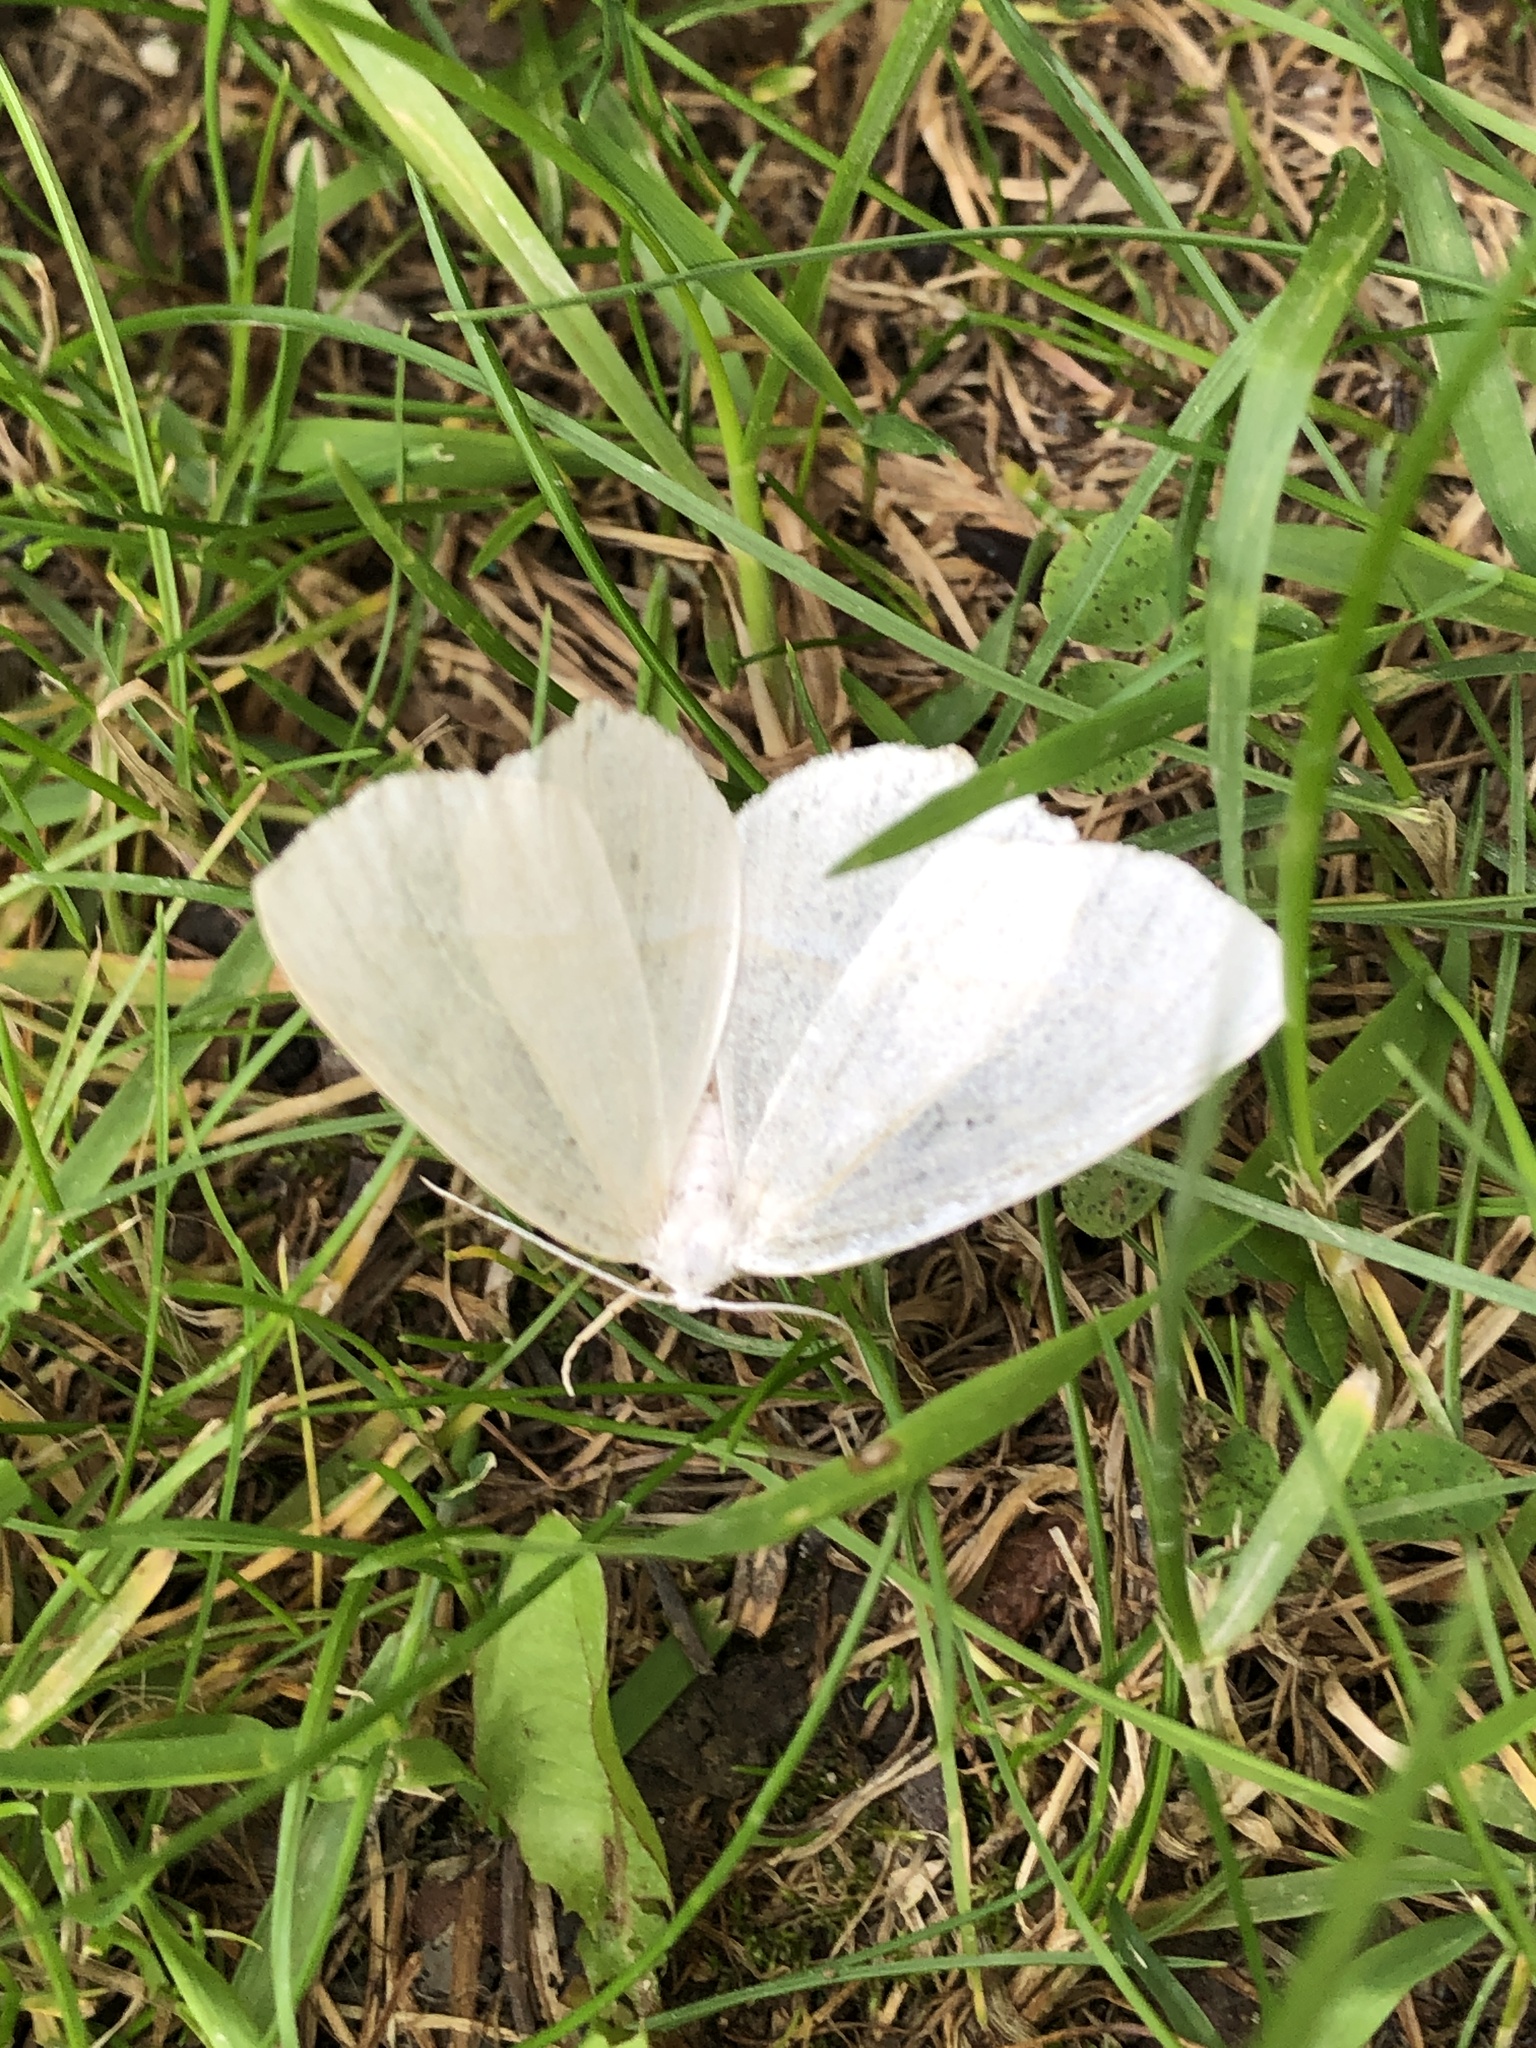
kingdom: Animalia
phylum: Arthropoda
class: Insecta
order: Lepidoptera
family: Geometridae
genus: Campaea
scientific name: Campaea perlata
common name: Fringed looper
